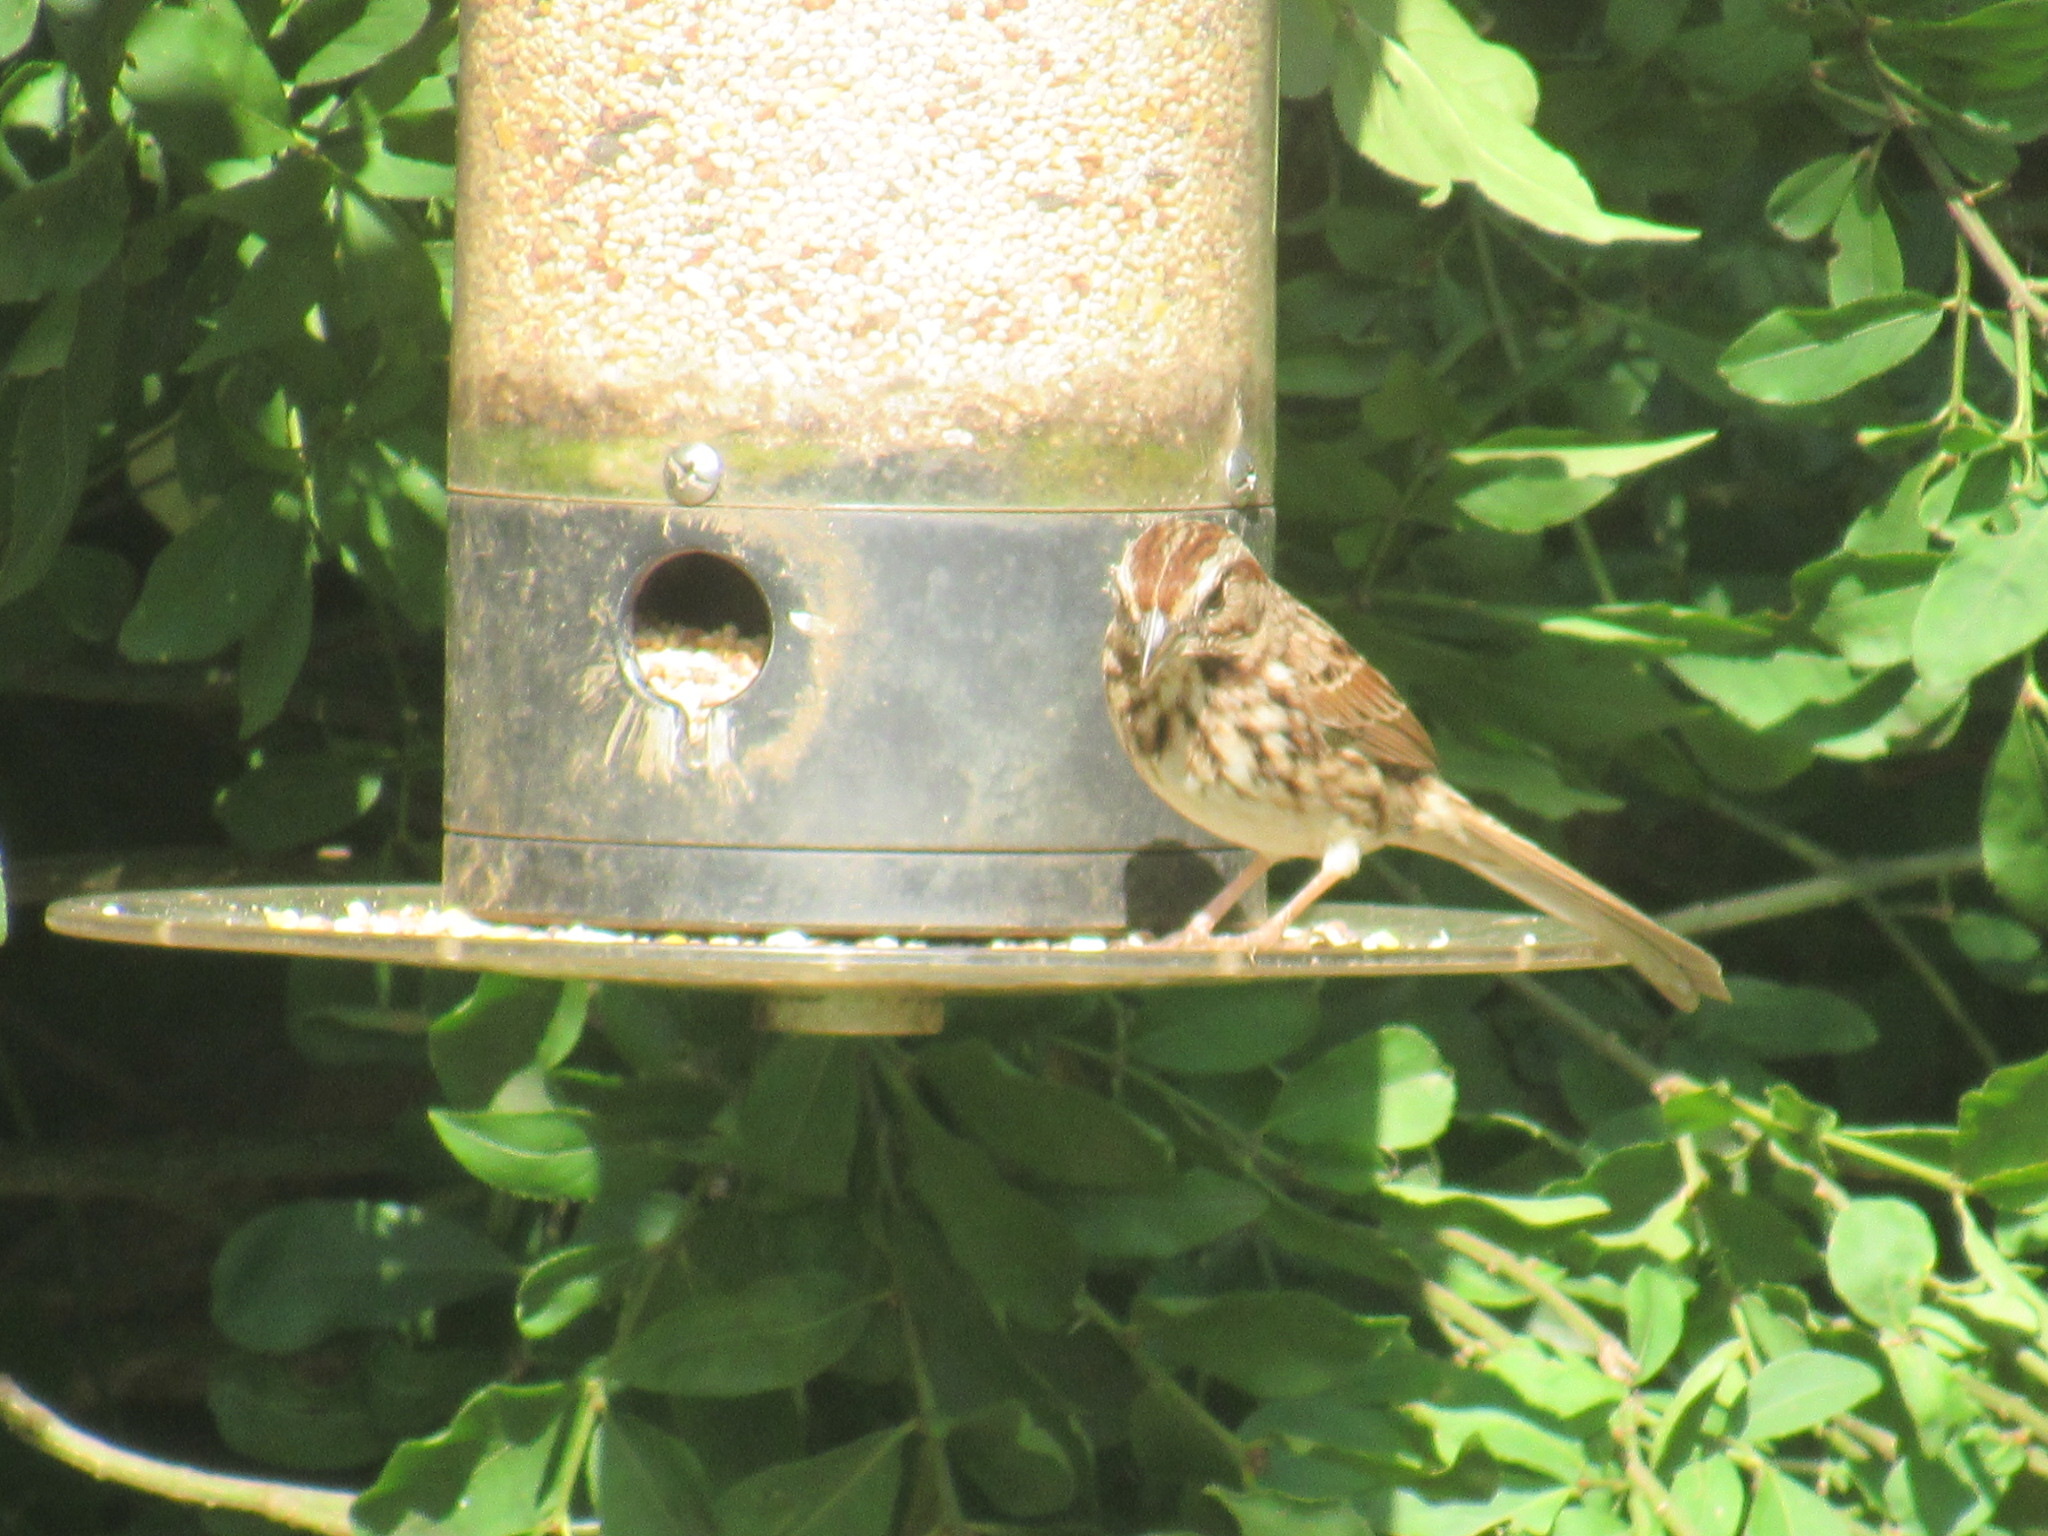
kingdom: Animalia
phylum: Chordata
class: Aves
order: Passeriformes
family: Passerellidae
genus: Melospiza
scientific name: Melospiza melodia
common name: Song sparrow
